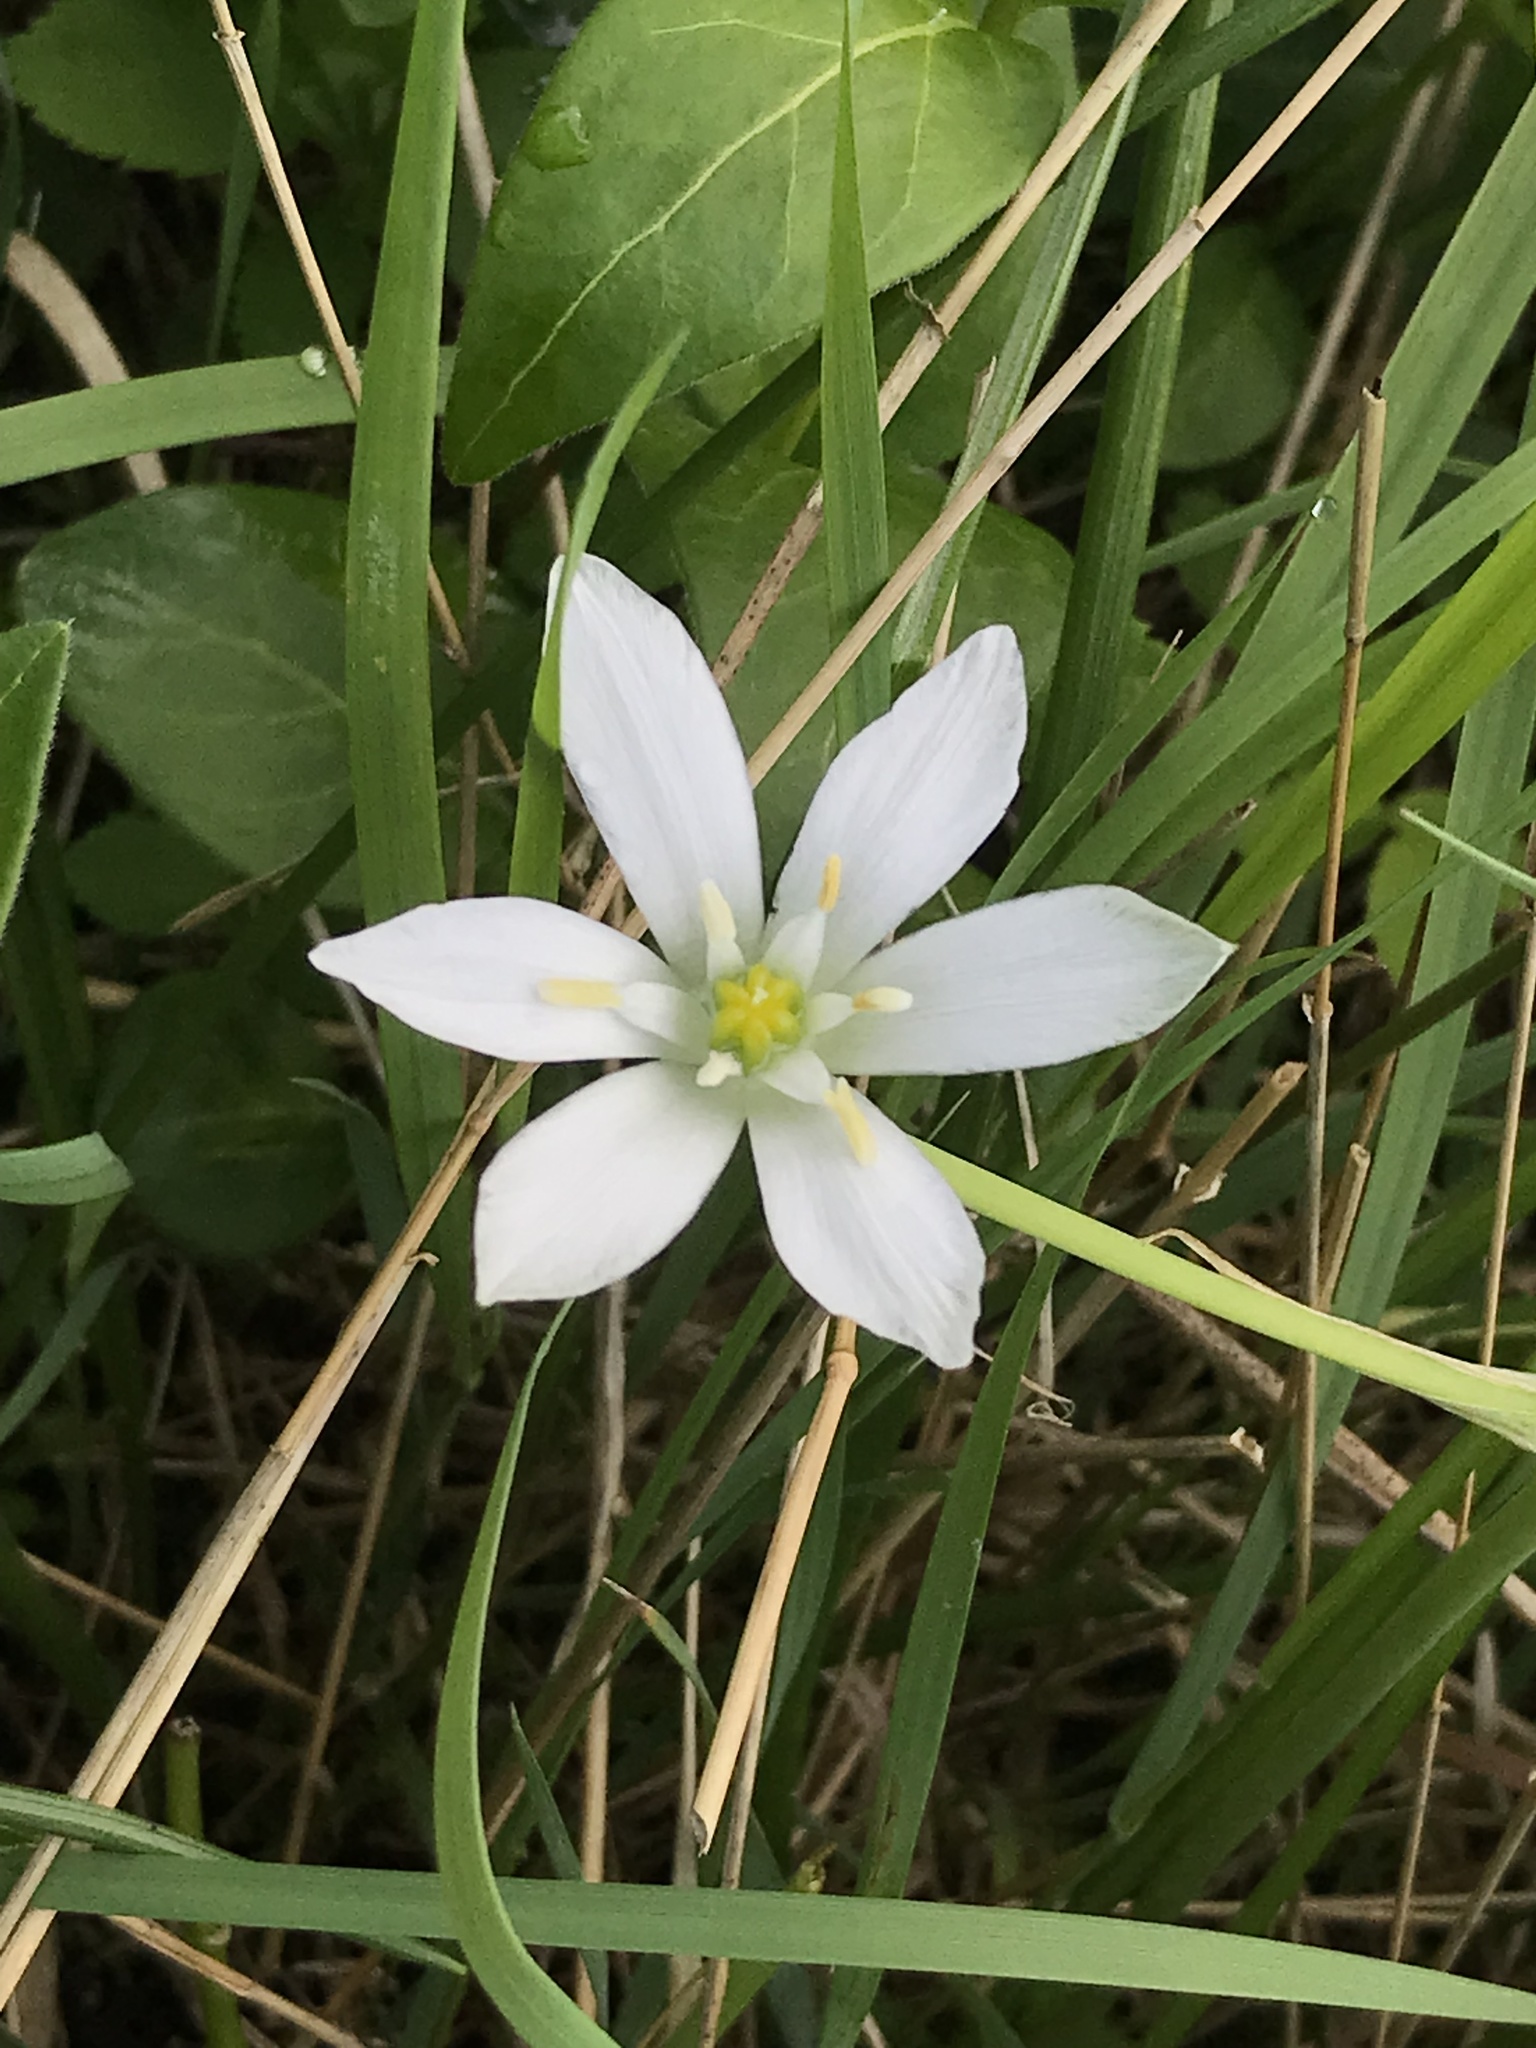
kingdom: Plantae
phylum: Tracheophyta
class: Liliopsida
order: Asparagales
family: Asparagaceae
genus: Ornithogalum
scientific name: Ornithogalum umbellatum
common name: Garden star-of-bethlehem
